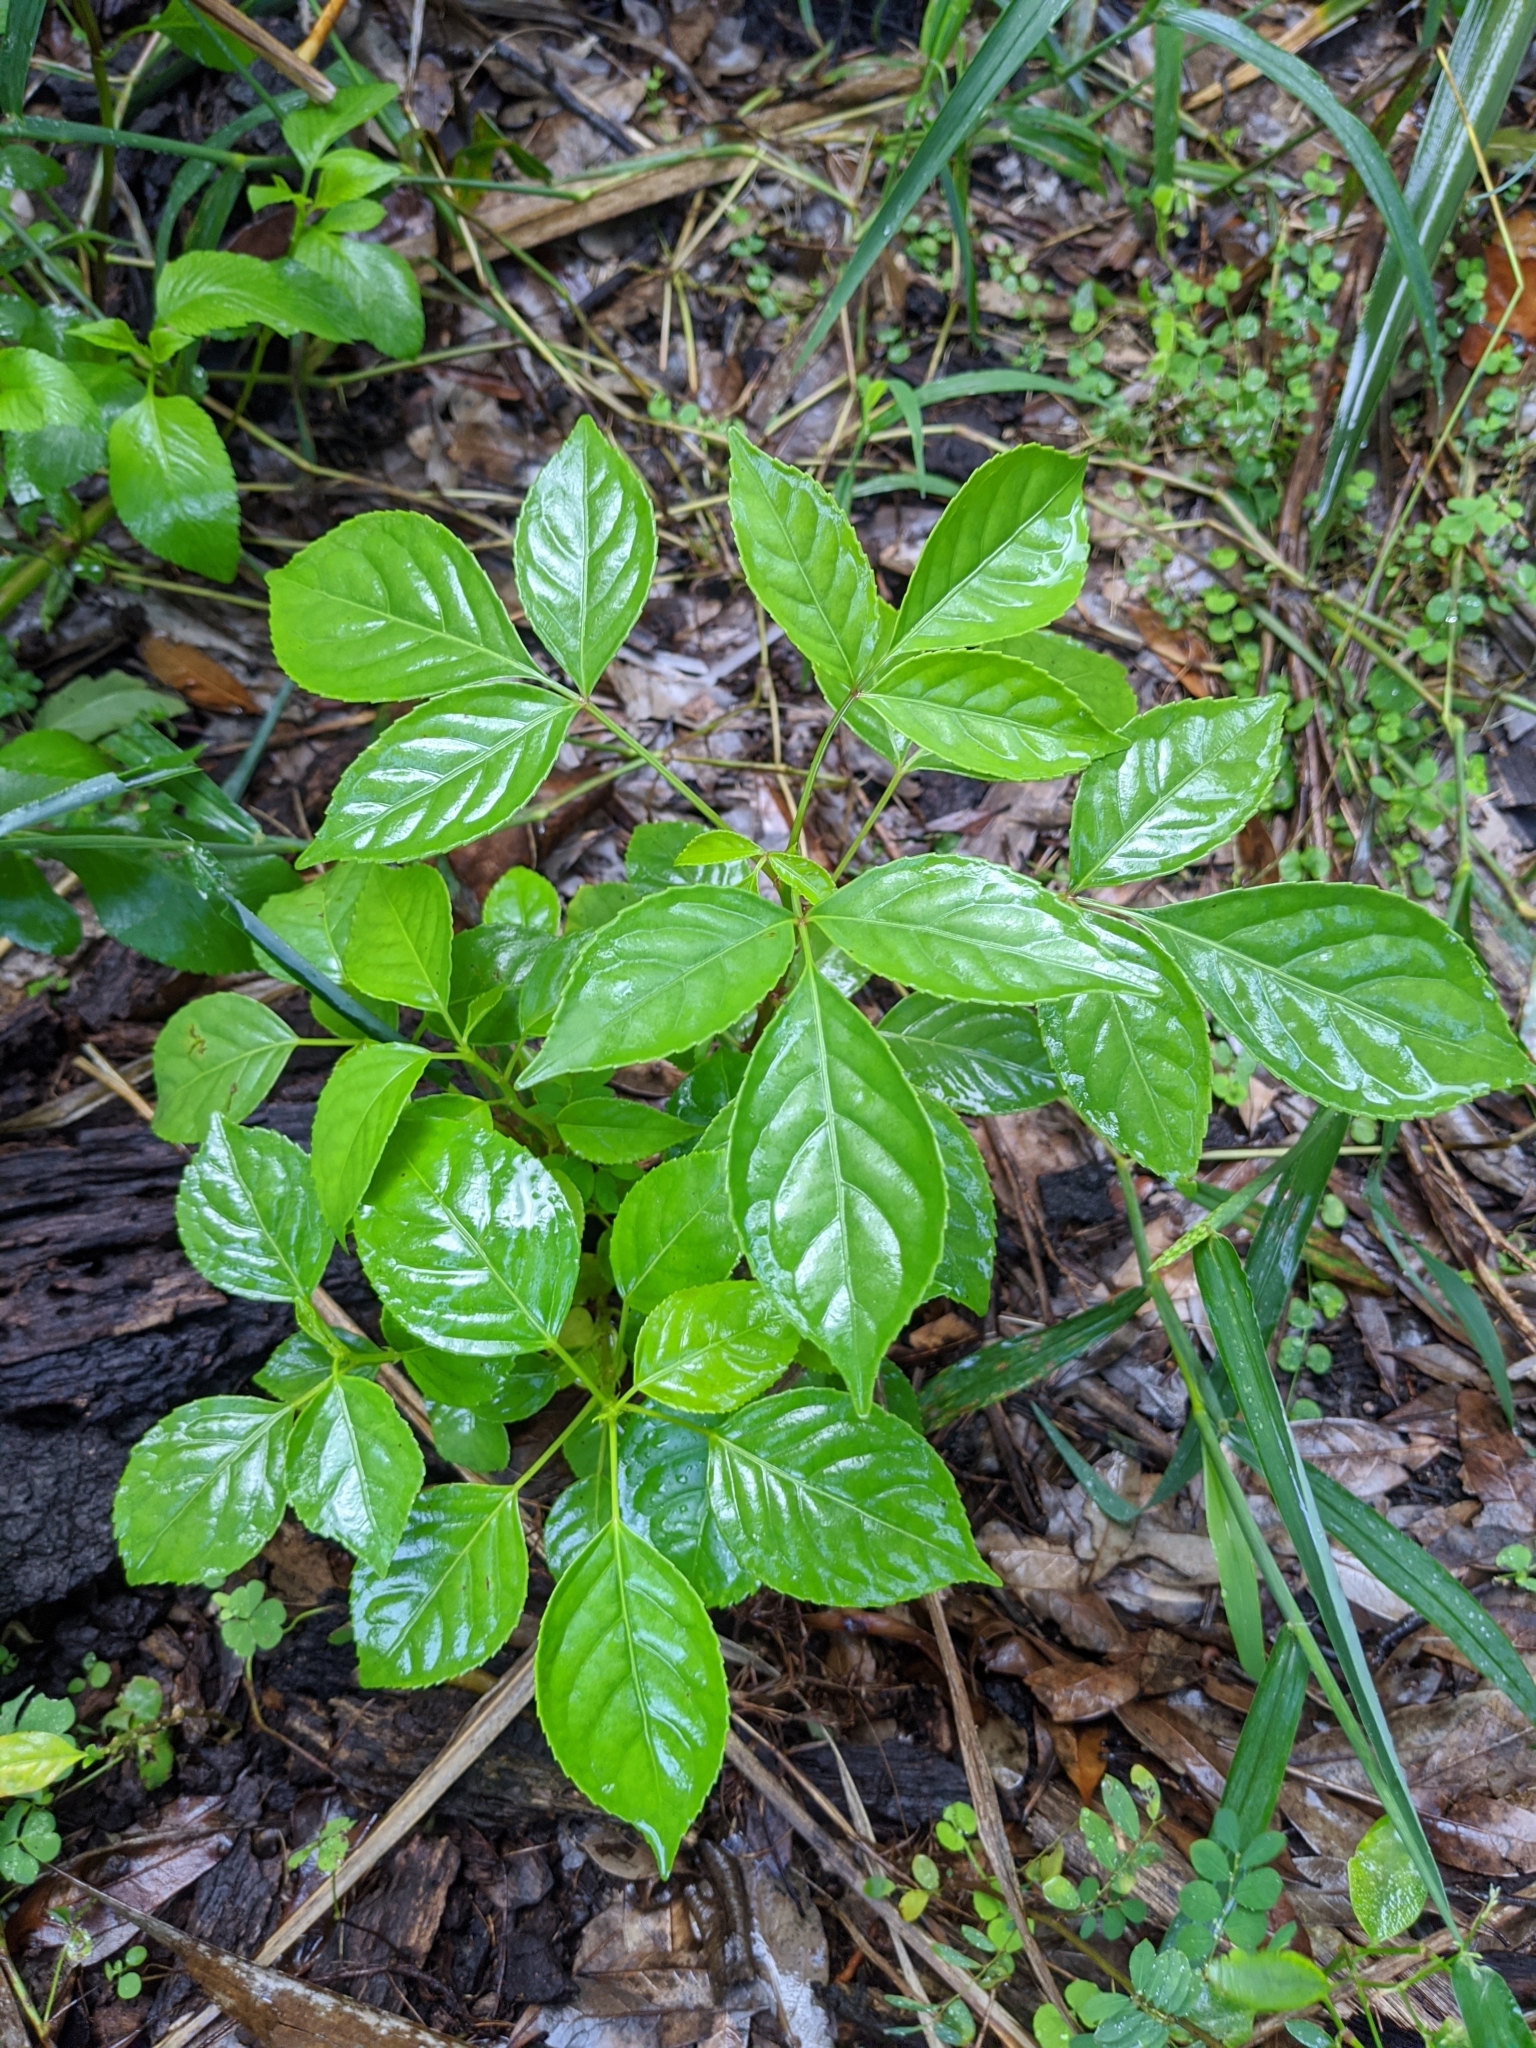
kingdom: Plantae
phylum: Tracheophyta
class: Magnoliopsida
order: Malpighiales
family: Phyllanthaceae
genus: Bischofia
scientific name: Bischofia javanica
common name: Javanese bishopwood
